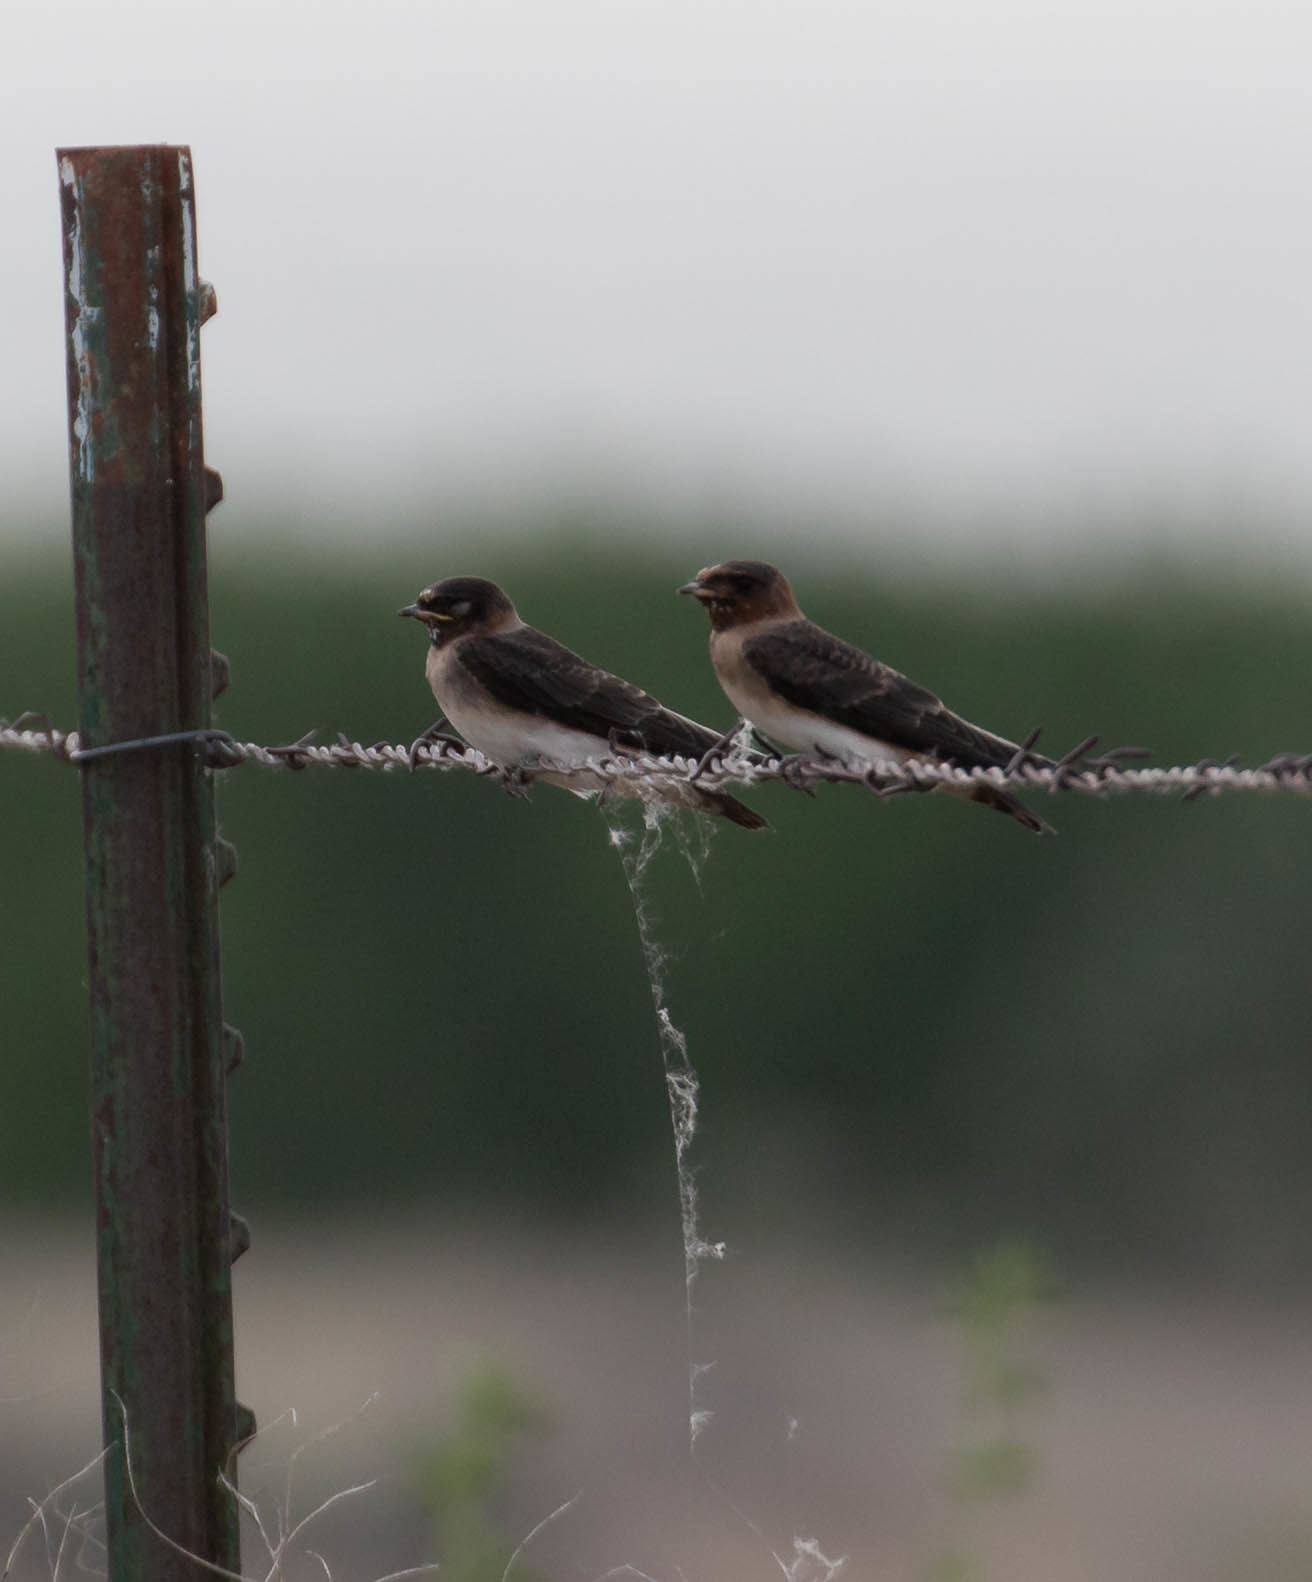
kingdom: Animalia
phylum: Chordata
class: Aves
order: Passeriformes
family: Hirundinidae
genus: Petrochelidon
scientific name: Petrochelidon pyrrhonota
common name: American cliff swallow
